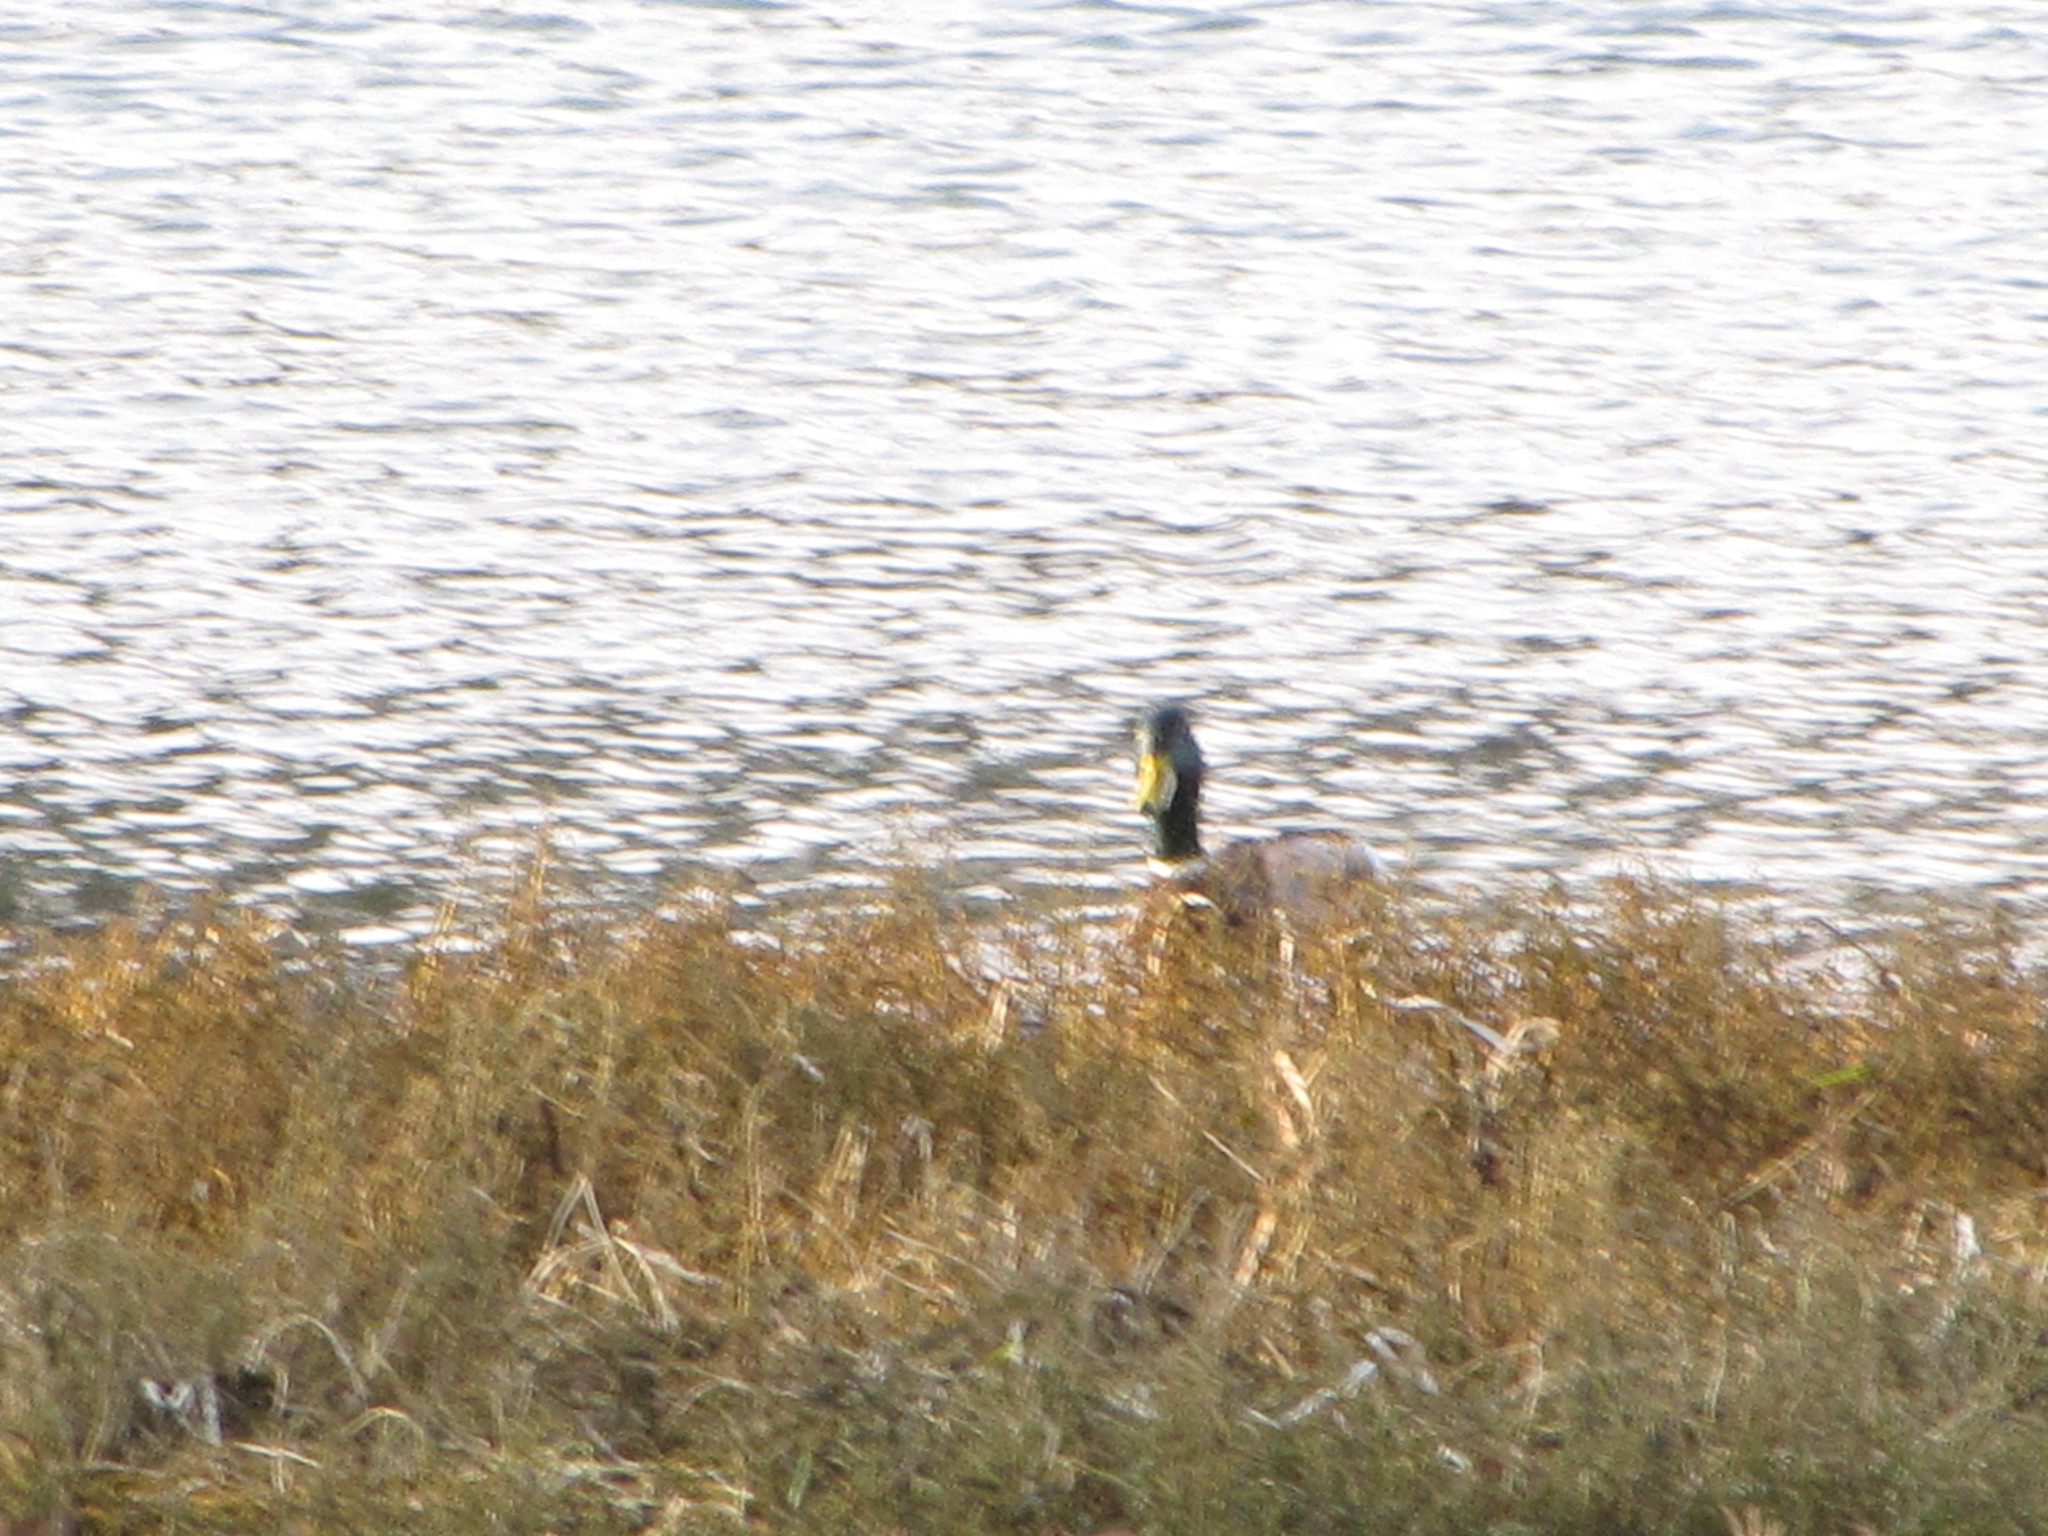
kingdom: Animalia
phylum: Chordata
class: Aves
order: Anseriformes
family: Anatidae
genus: Anas
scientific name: Anas platyrhynchos
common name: Mallard
